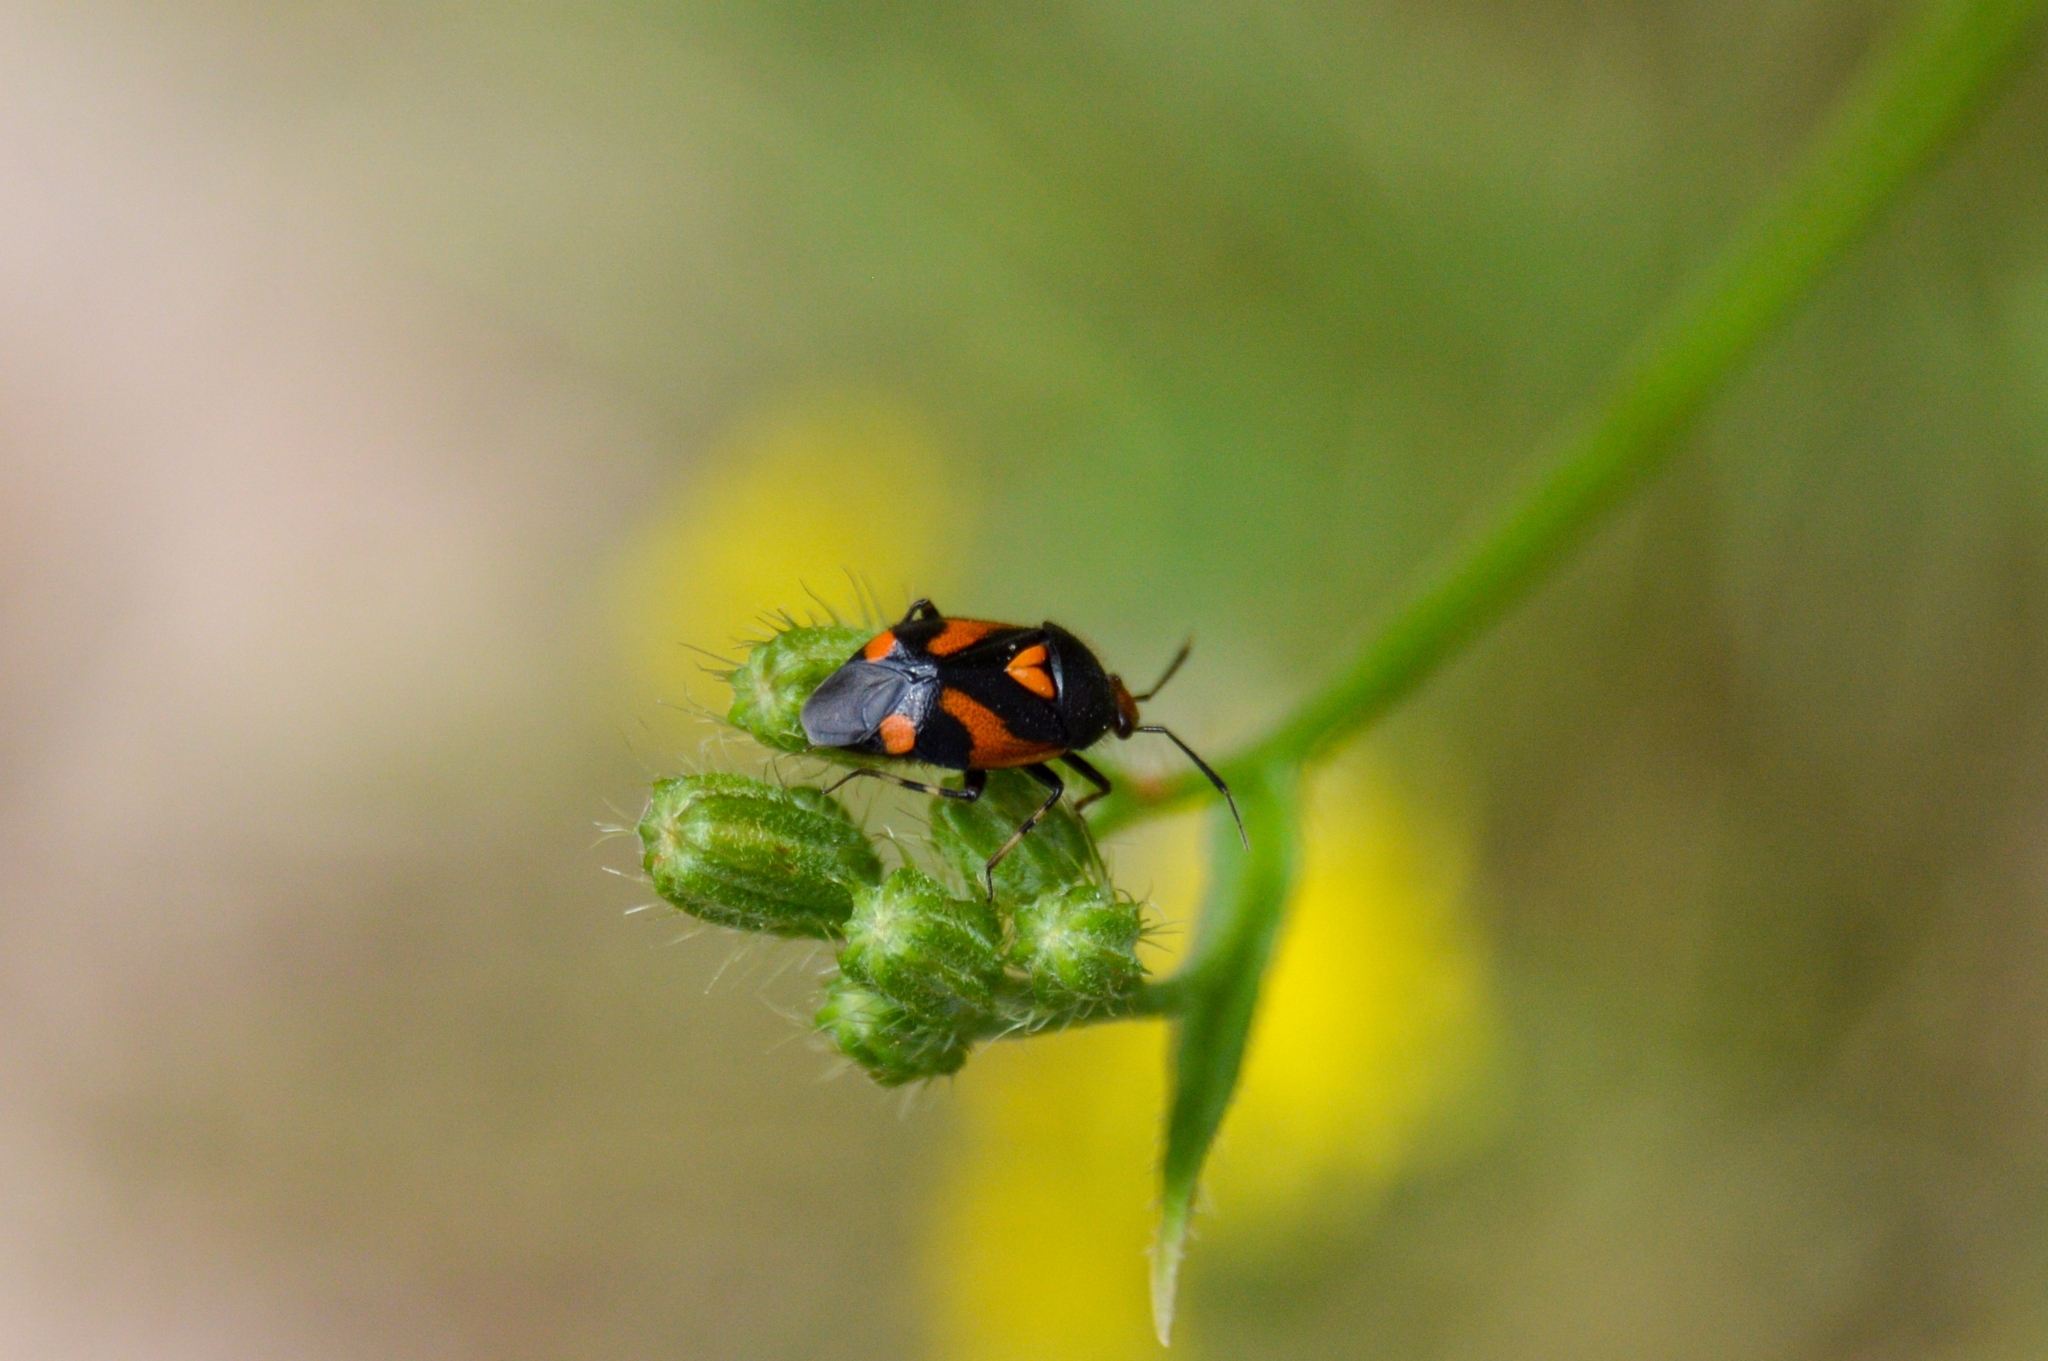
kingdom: Animalia
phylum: Arthropoda
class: Insecta
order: Hemiptera
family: Miridae
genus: Deraeocoris
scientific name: Deraeocoris schach
